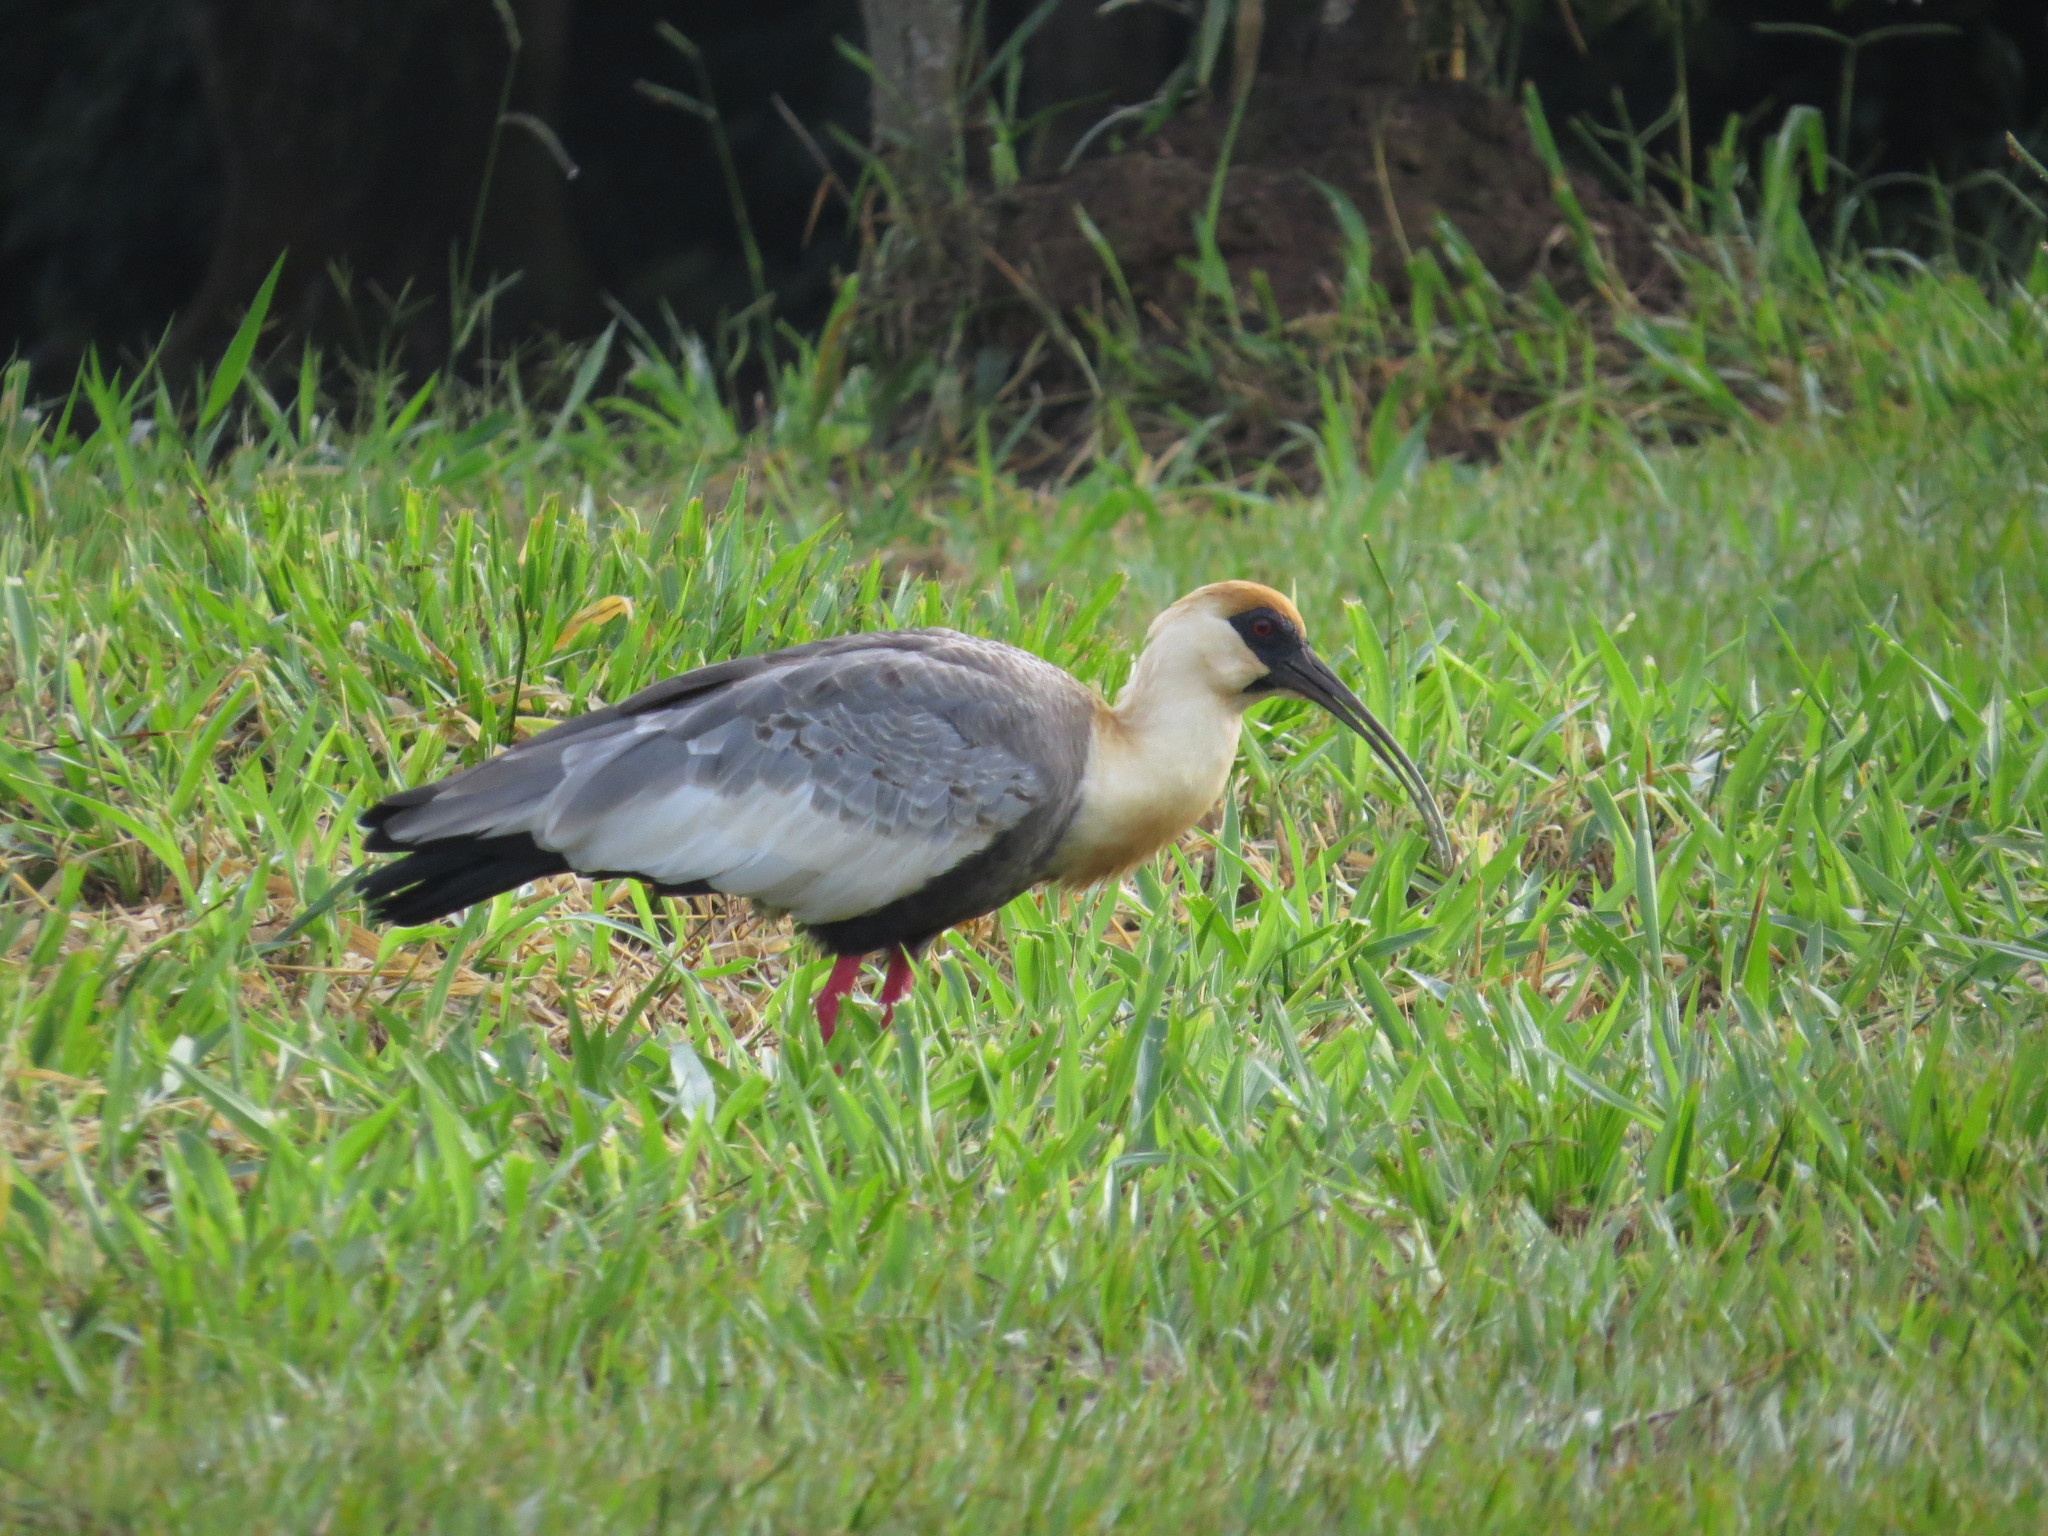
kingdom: Animalia
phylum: Chordata
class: Aves
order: Pelecaniformes
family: Threskiornithidae
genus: Theristicus
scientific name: Theristicus caudatus
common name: Buff-necked ibis
